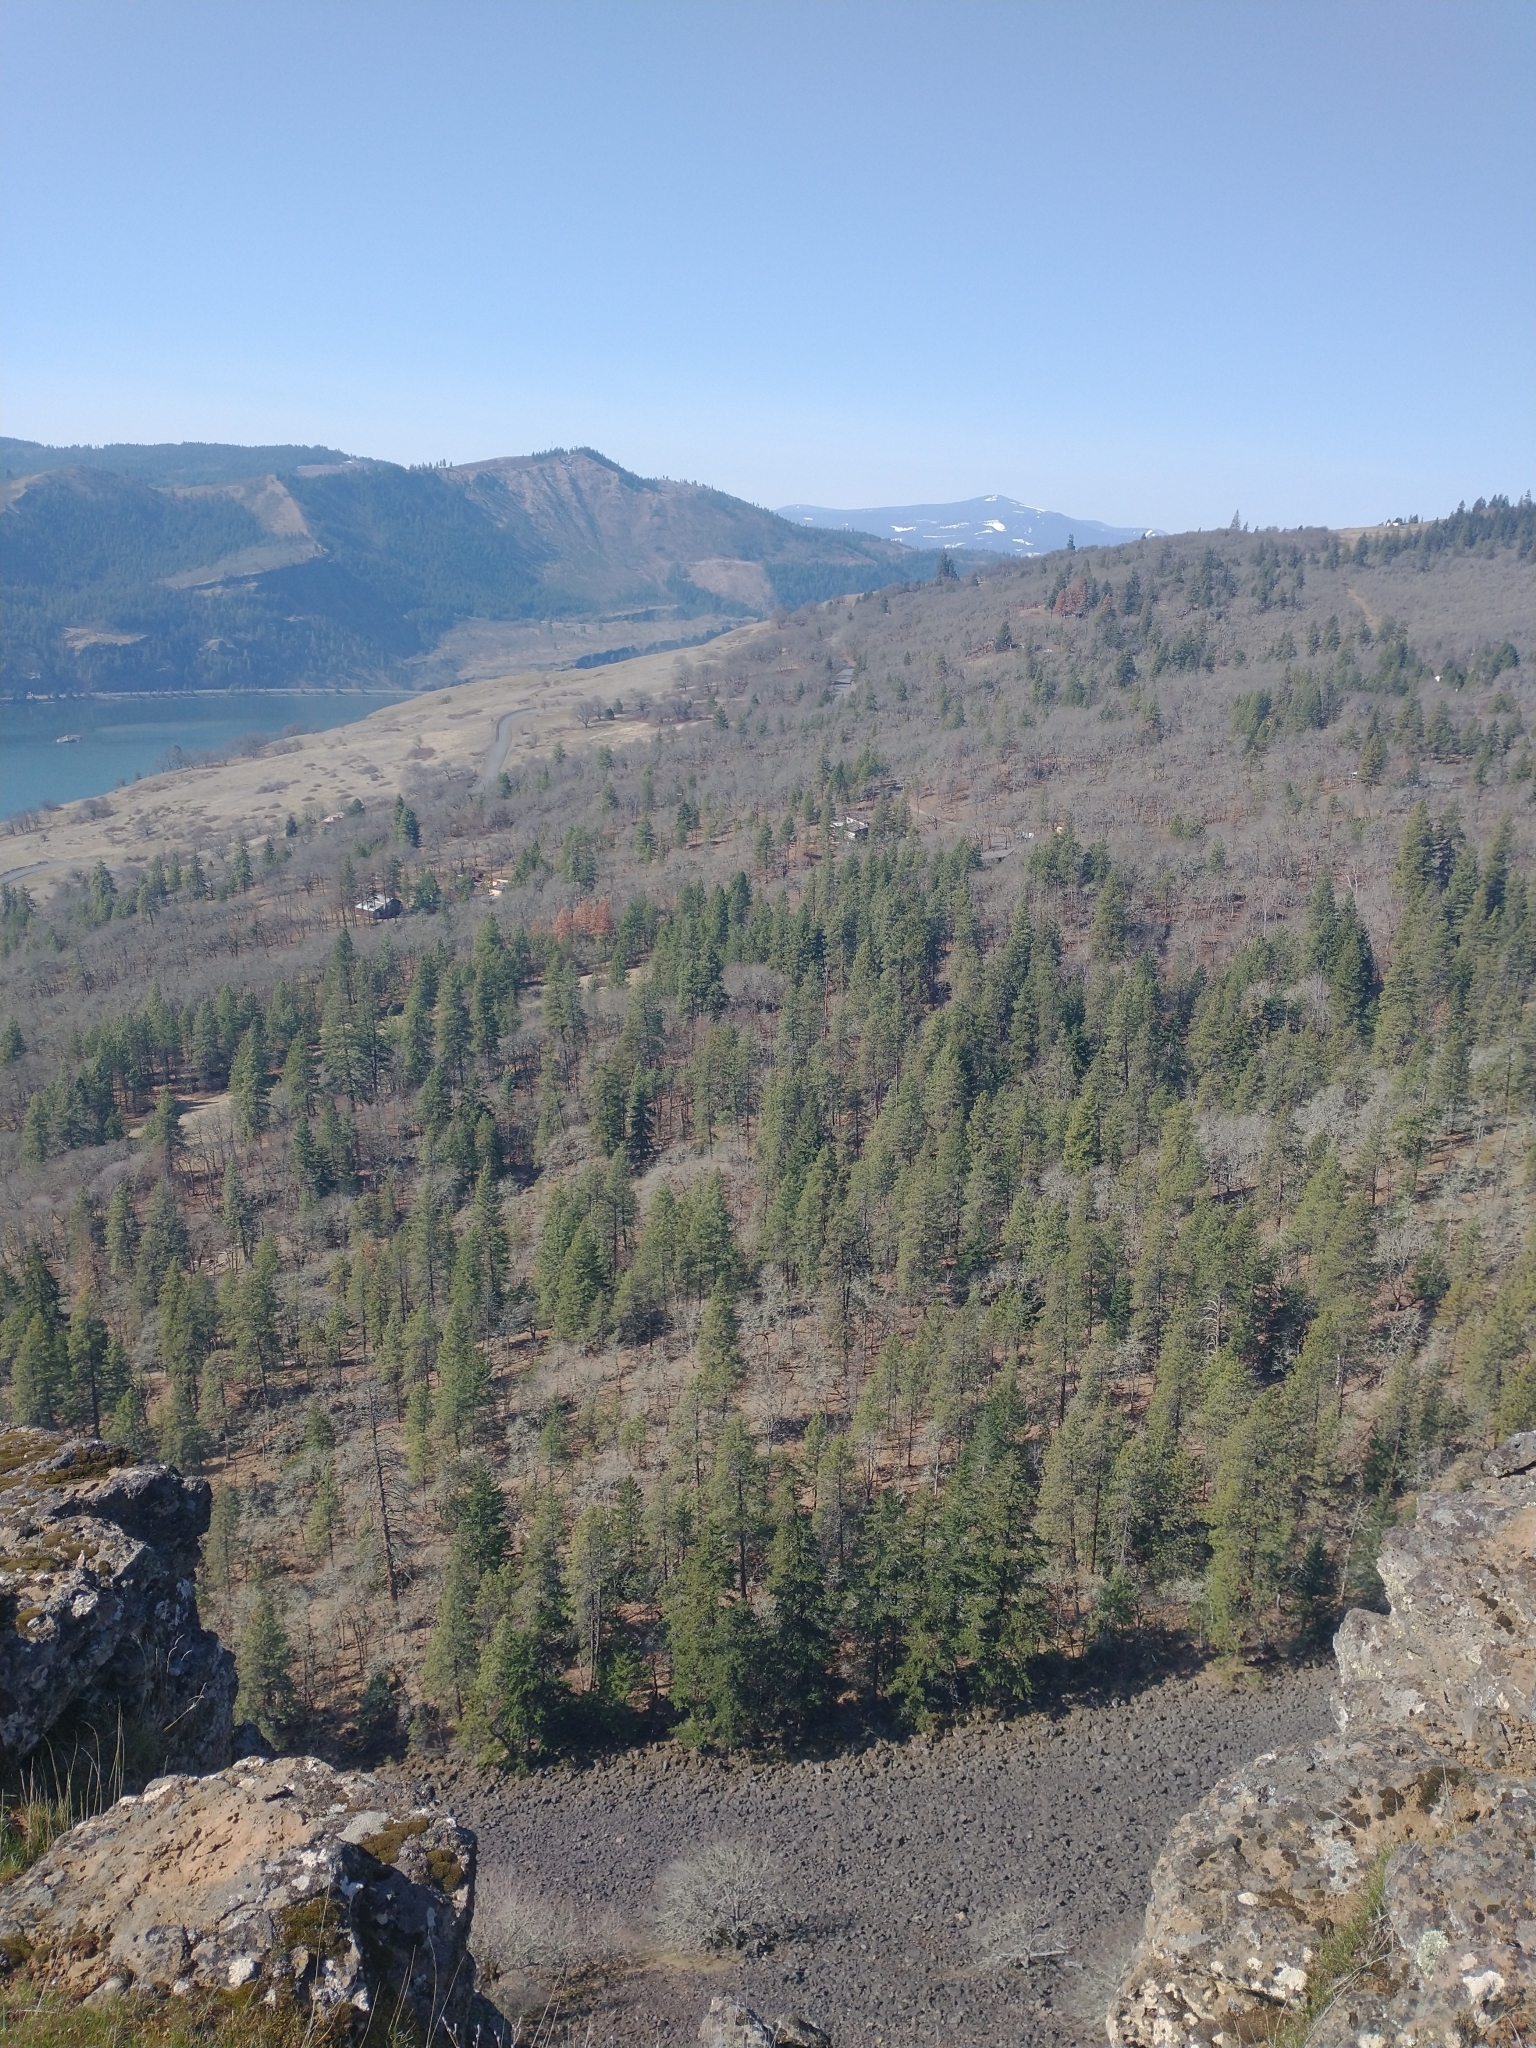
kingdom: Plantae
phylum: Tracheophyta
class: Magnoliopsida
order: Fagales
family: Fagaceae
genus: Quercus
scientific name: Quercus garryana
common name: Garry oak
